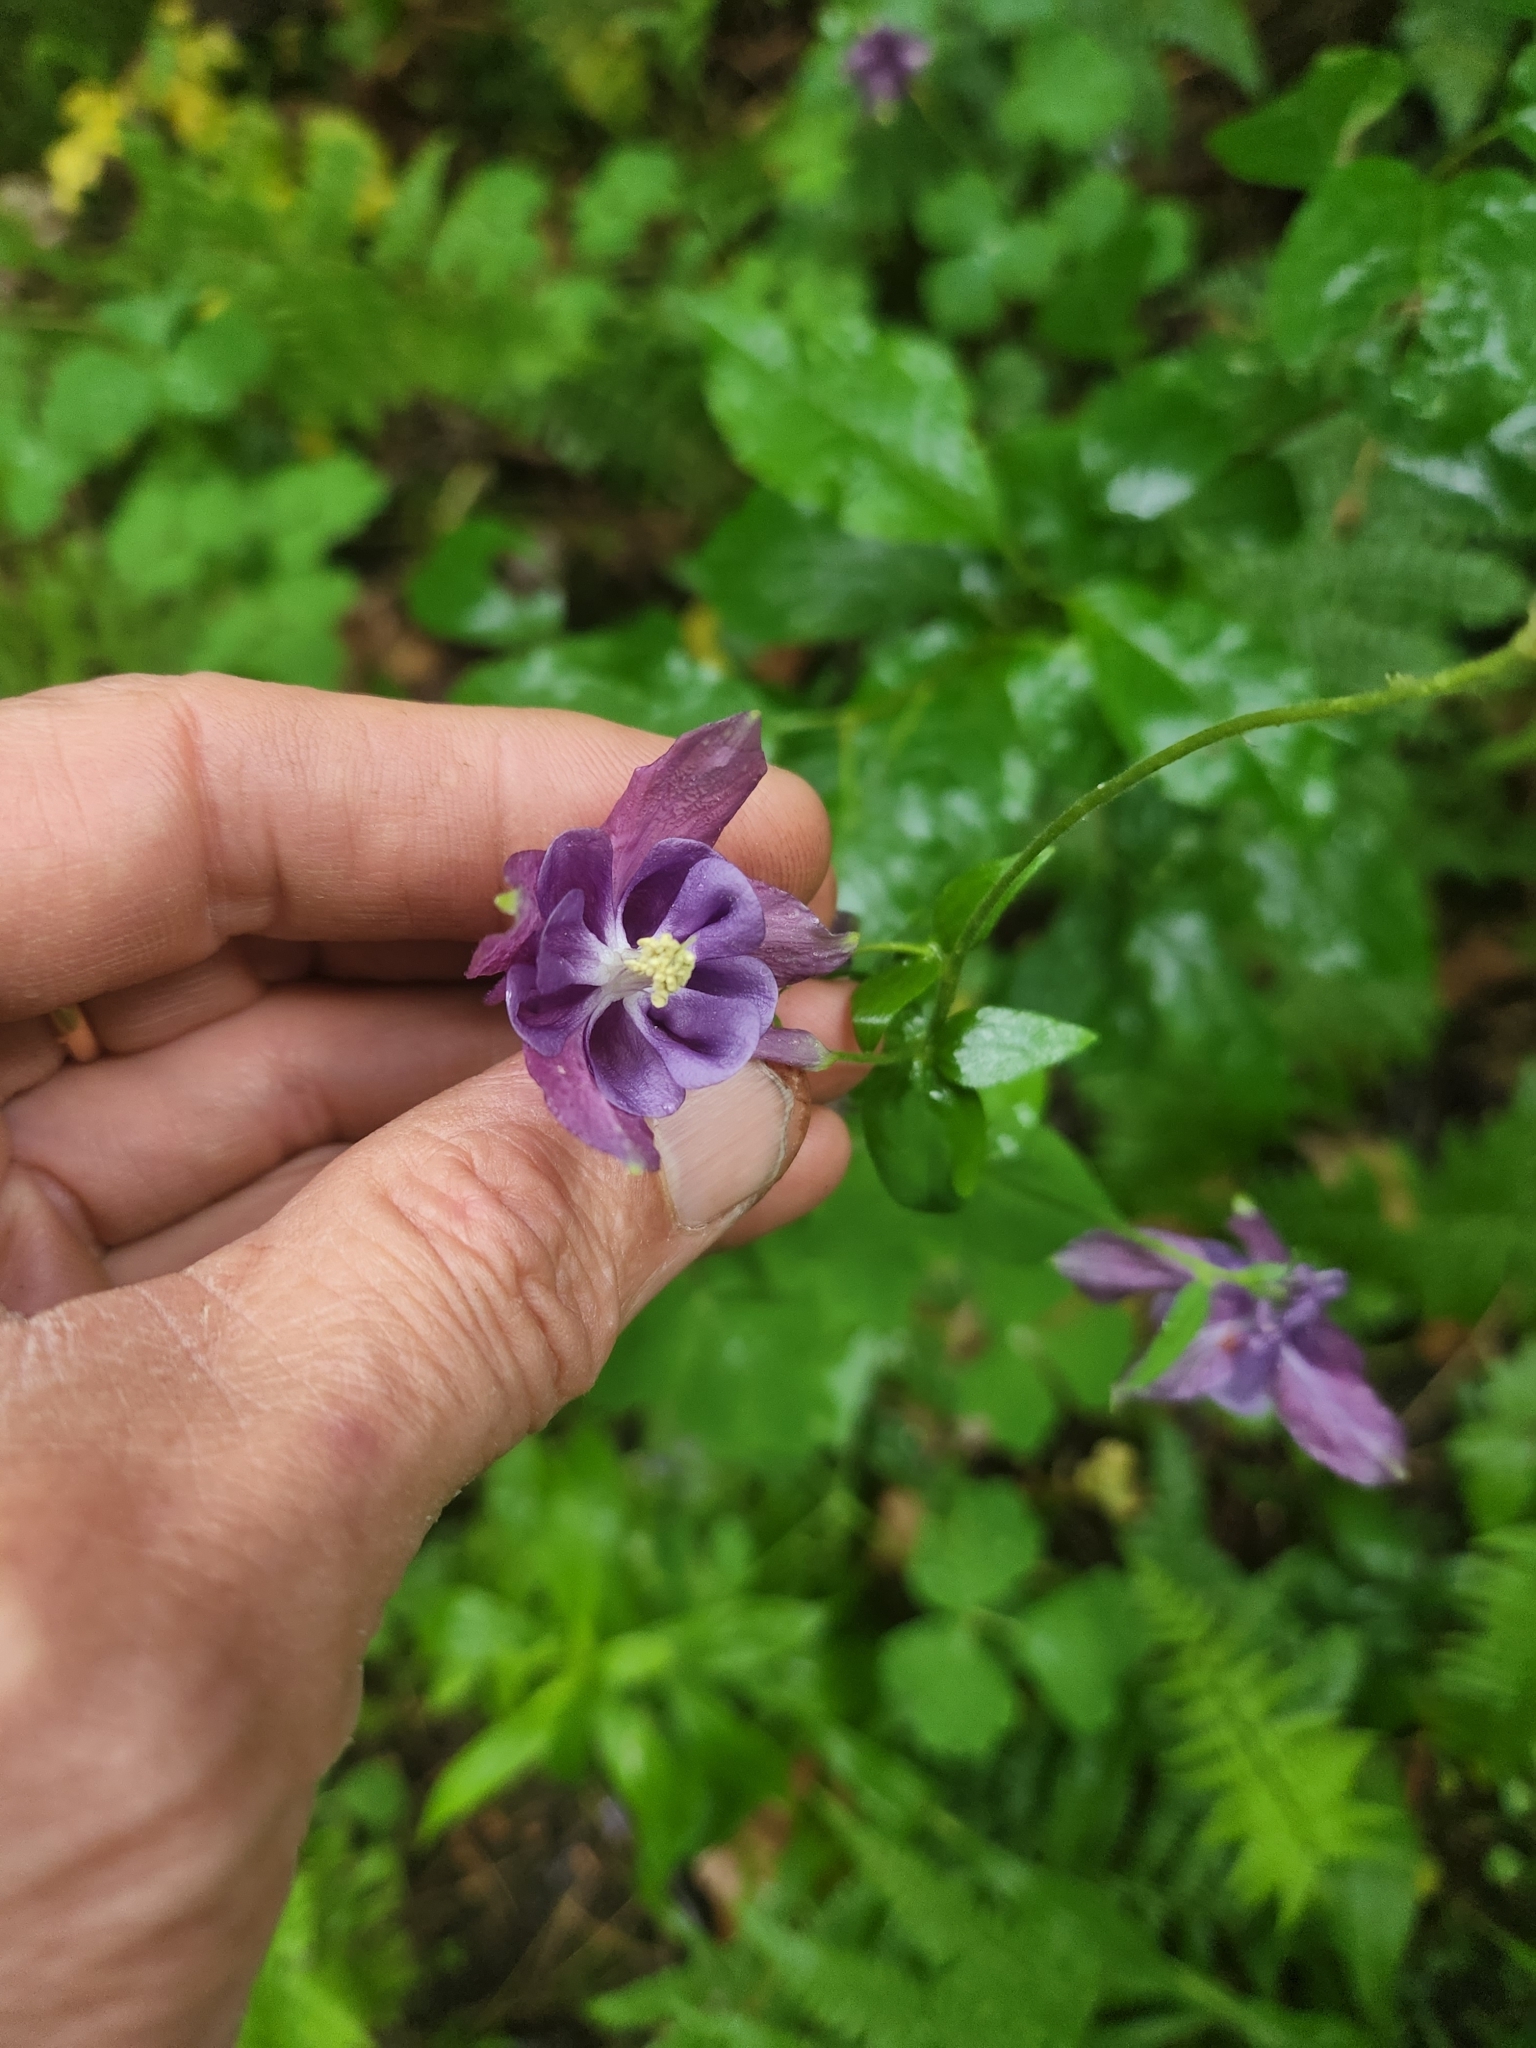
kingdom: Plantae
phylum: Tracheophyta
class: Magnoliopsida
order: Ranunculales
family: Ranunculaceae
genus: Aquilegia
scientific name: Aquilegia vulgaris
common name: Columbine
